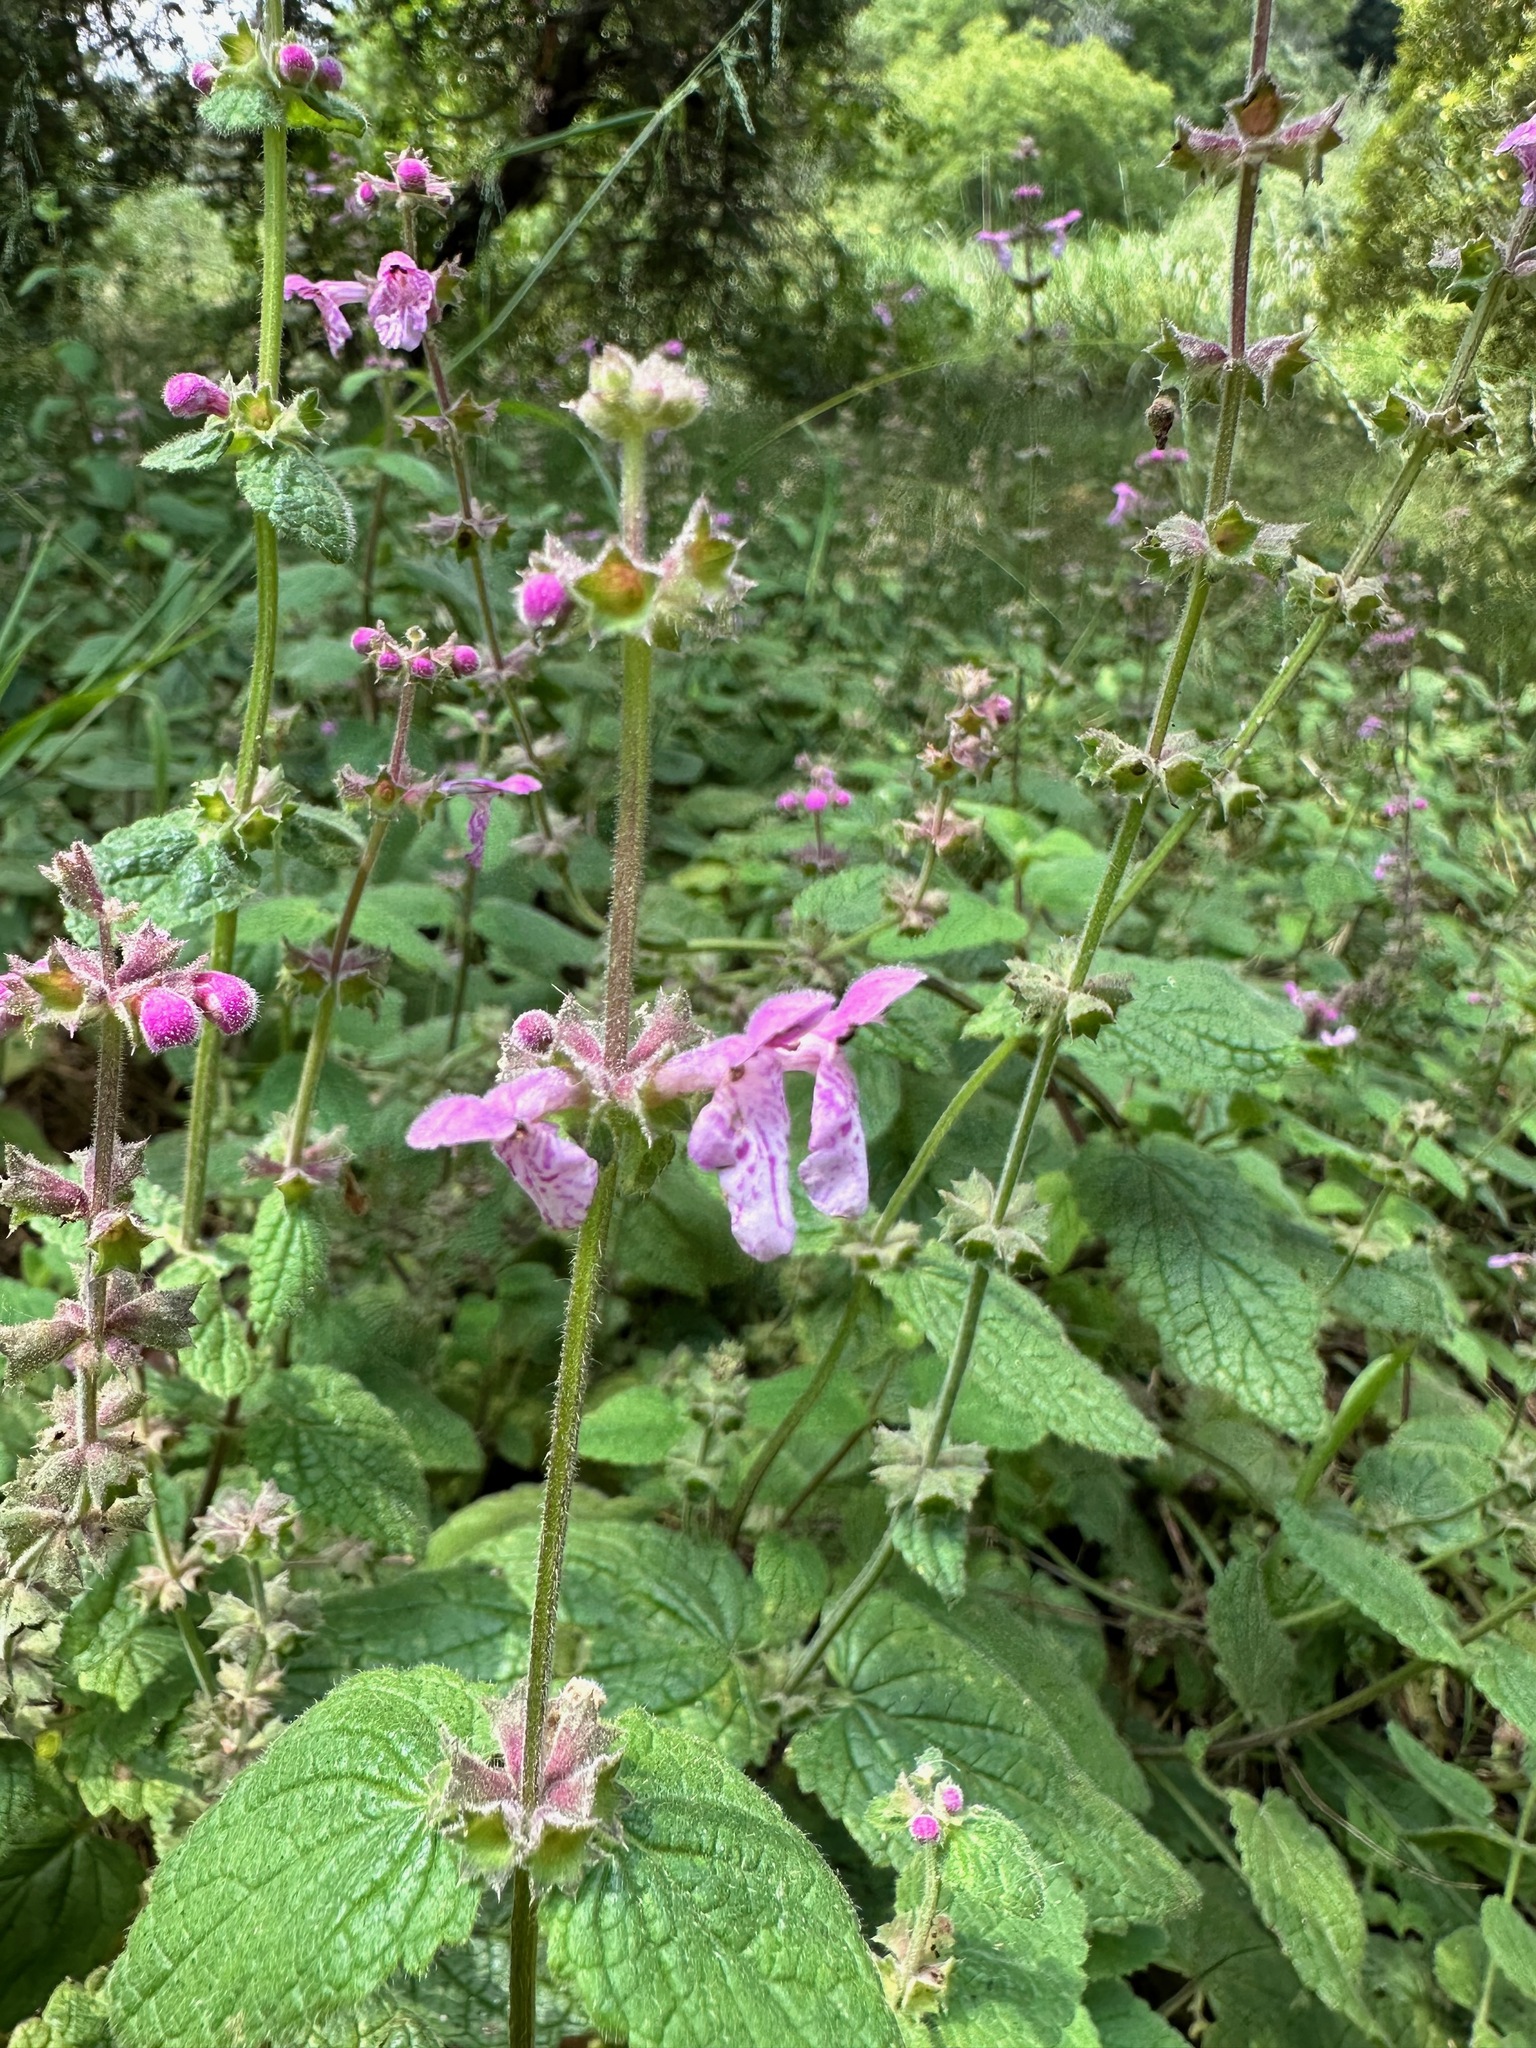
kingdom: Plantae
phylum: Tracheophyta
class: Magnoliopsida
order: Lamiales
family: Lamiaceae
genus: Stachys
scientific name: Stachys bullata
